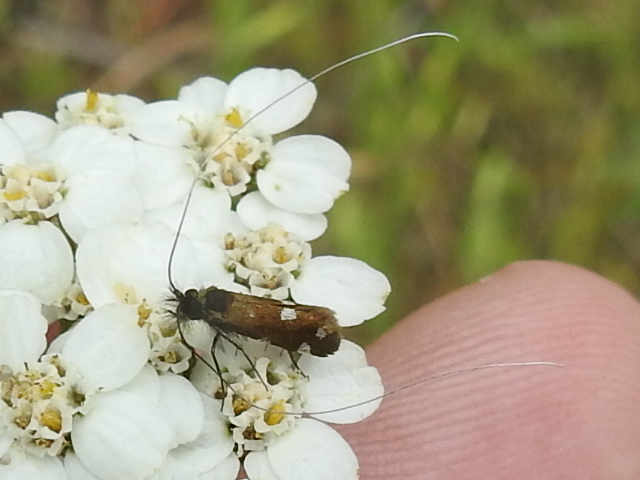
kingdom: Animalia
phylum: Arthropoda
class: Insecta
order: Lepidoptera
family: Adelidae
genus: Adela
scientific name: Adela flammeusella
